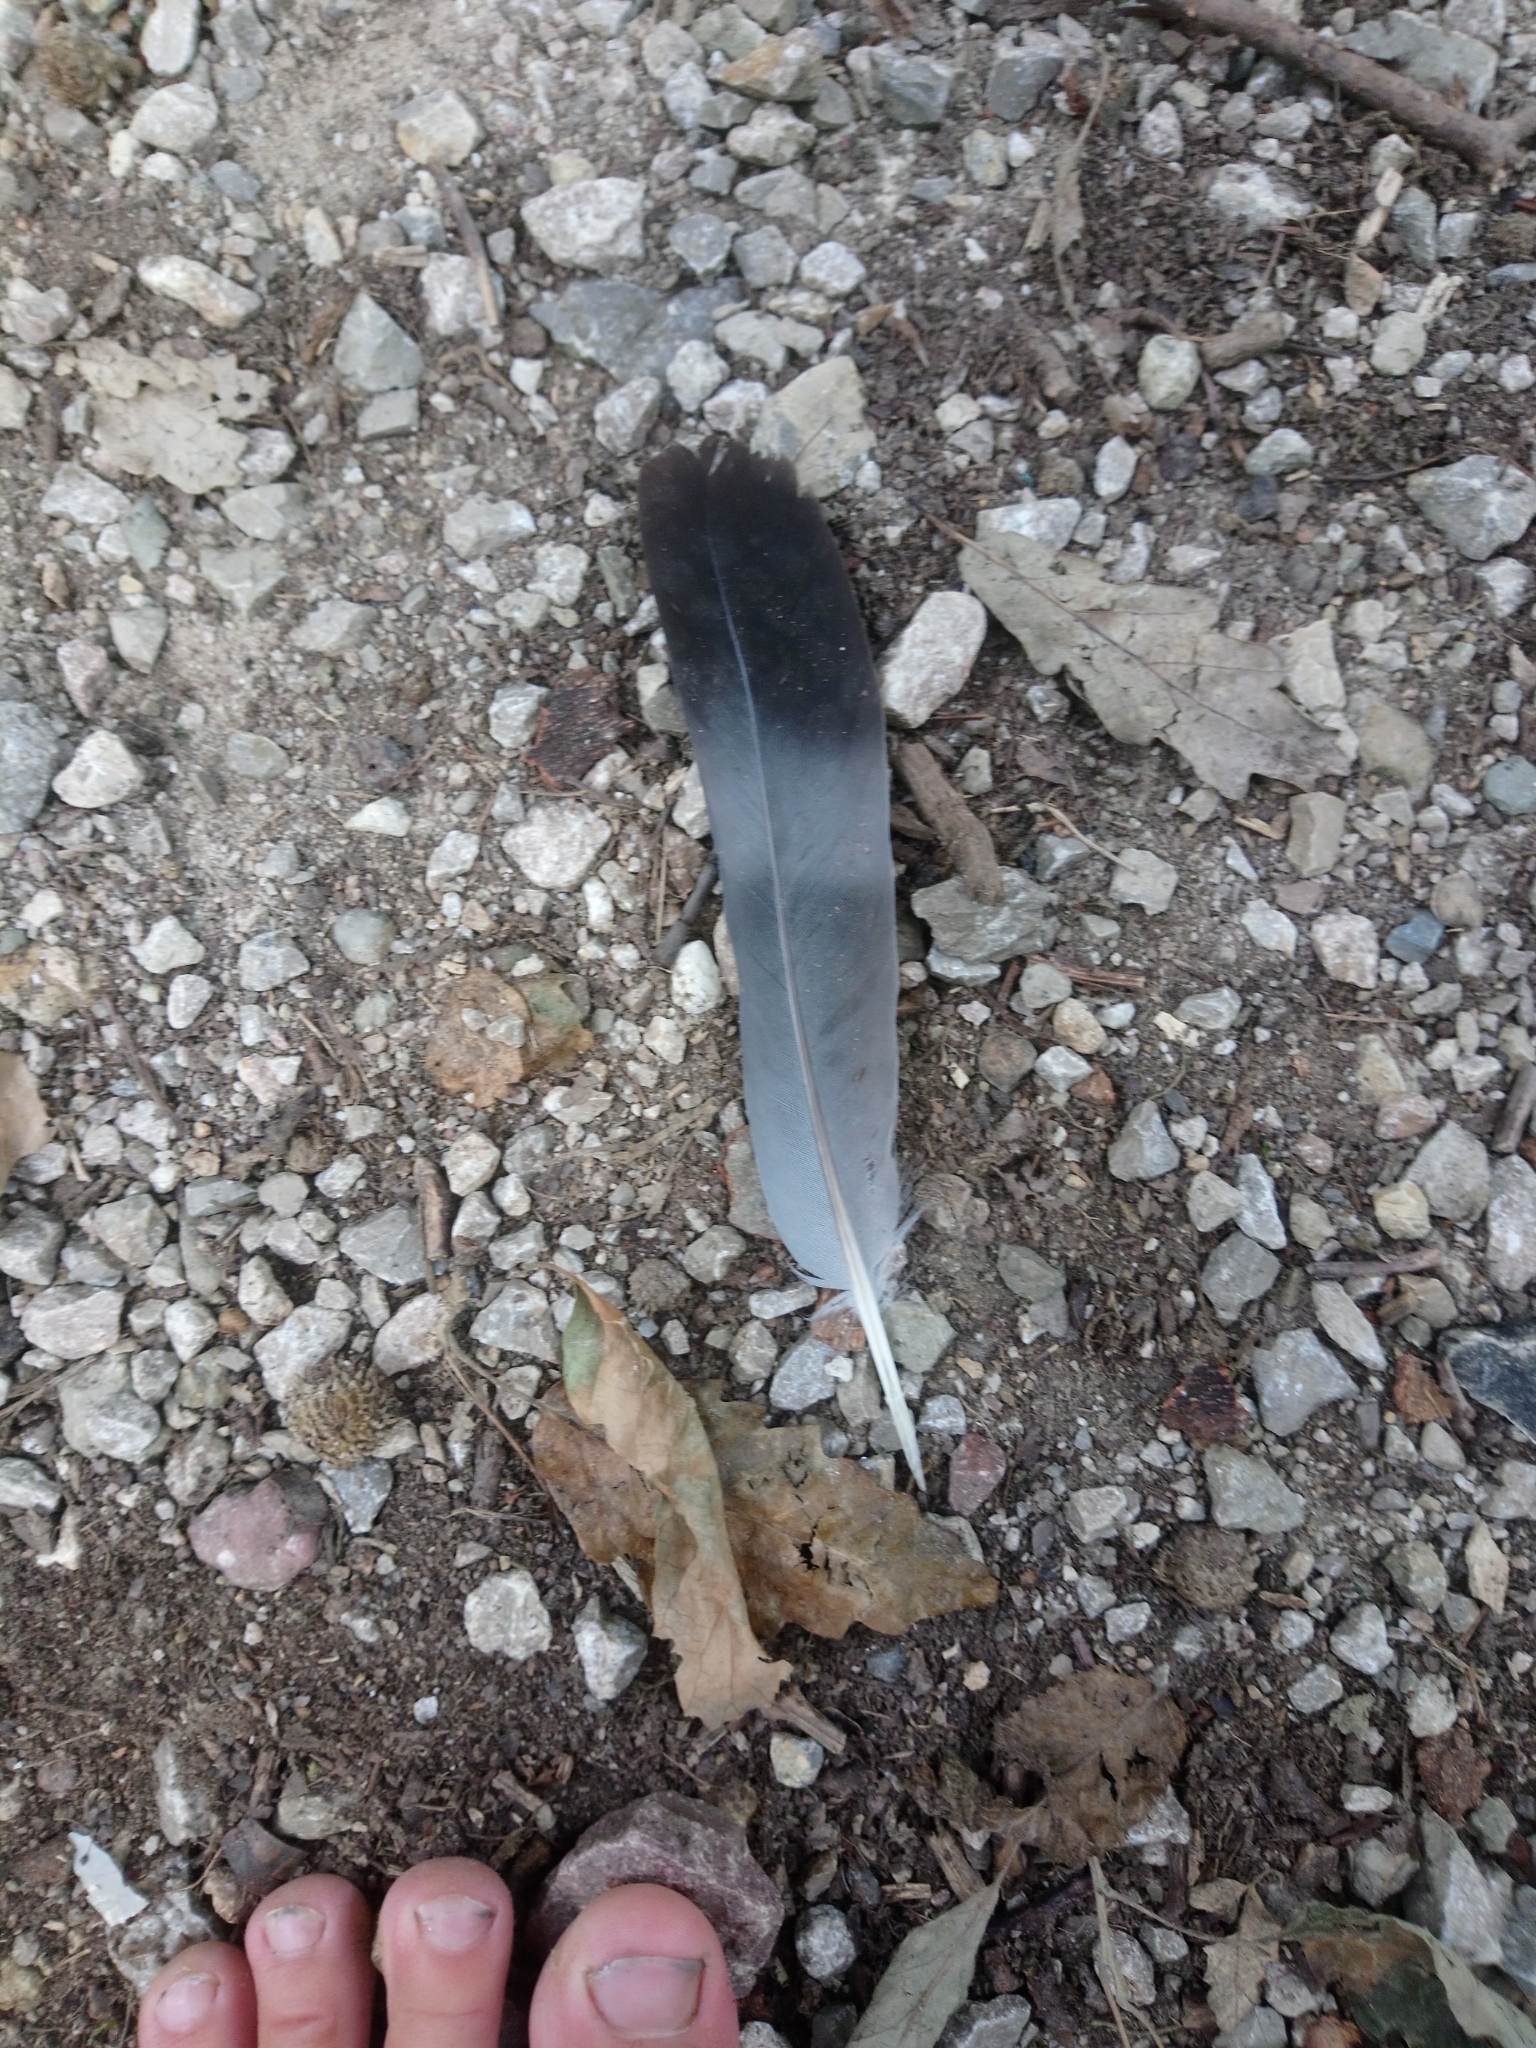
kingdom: Animalia
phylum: Chordata
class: Aves
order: Columbiformes
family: Columbidae
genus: Columba
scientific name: Columba palumbus
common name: Common wood pigeon
